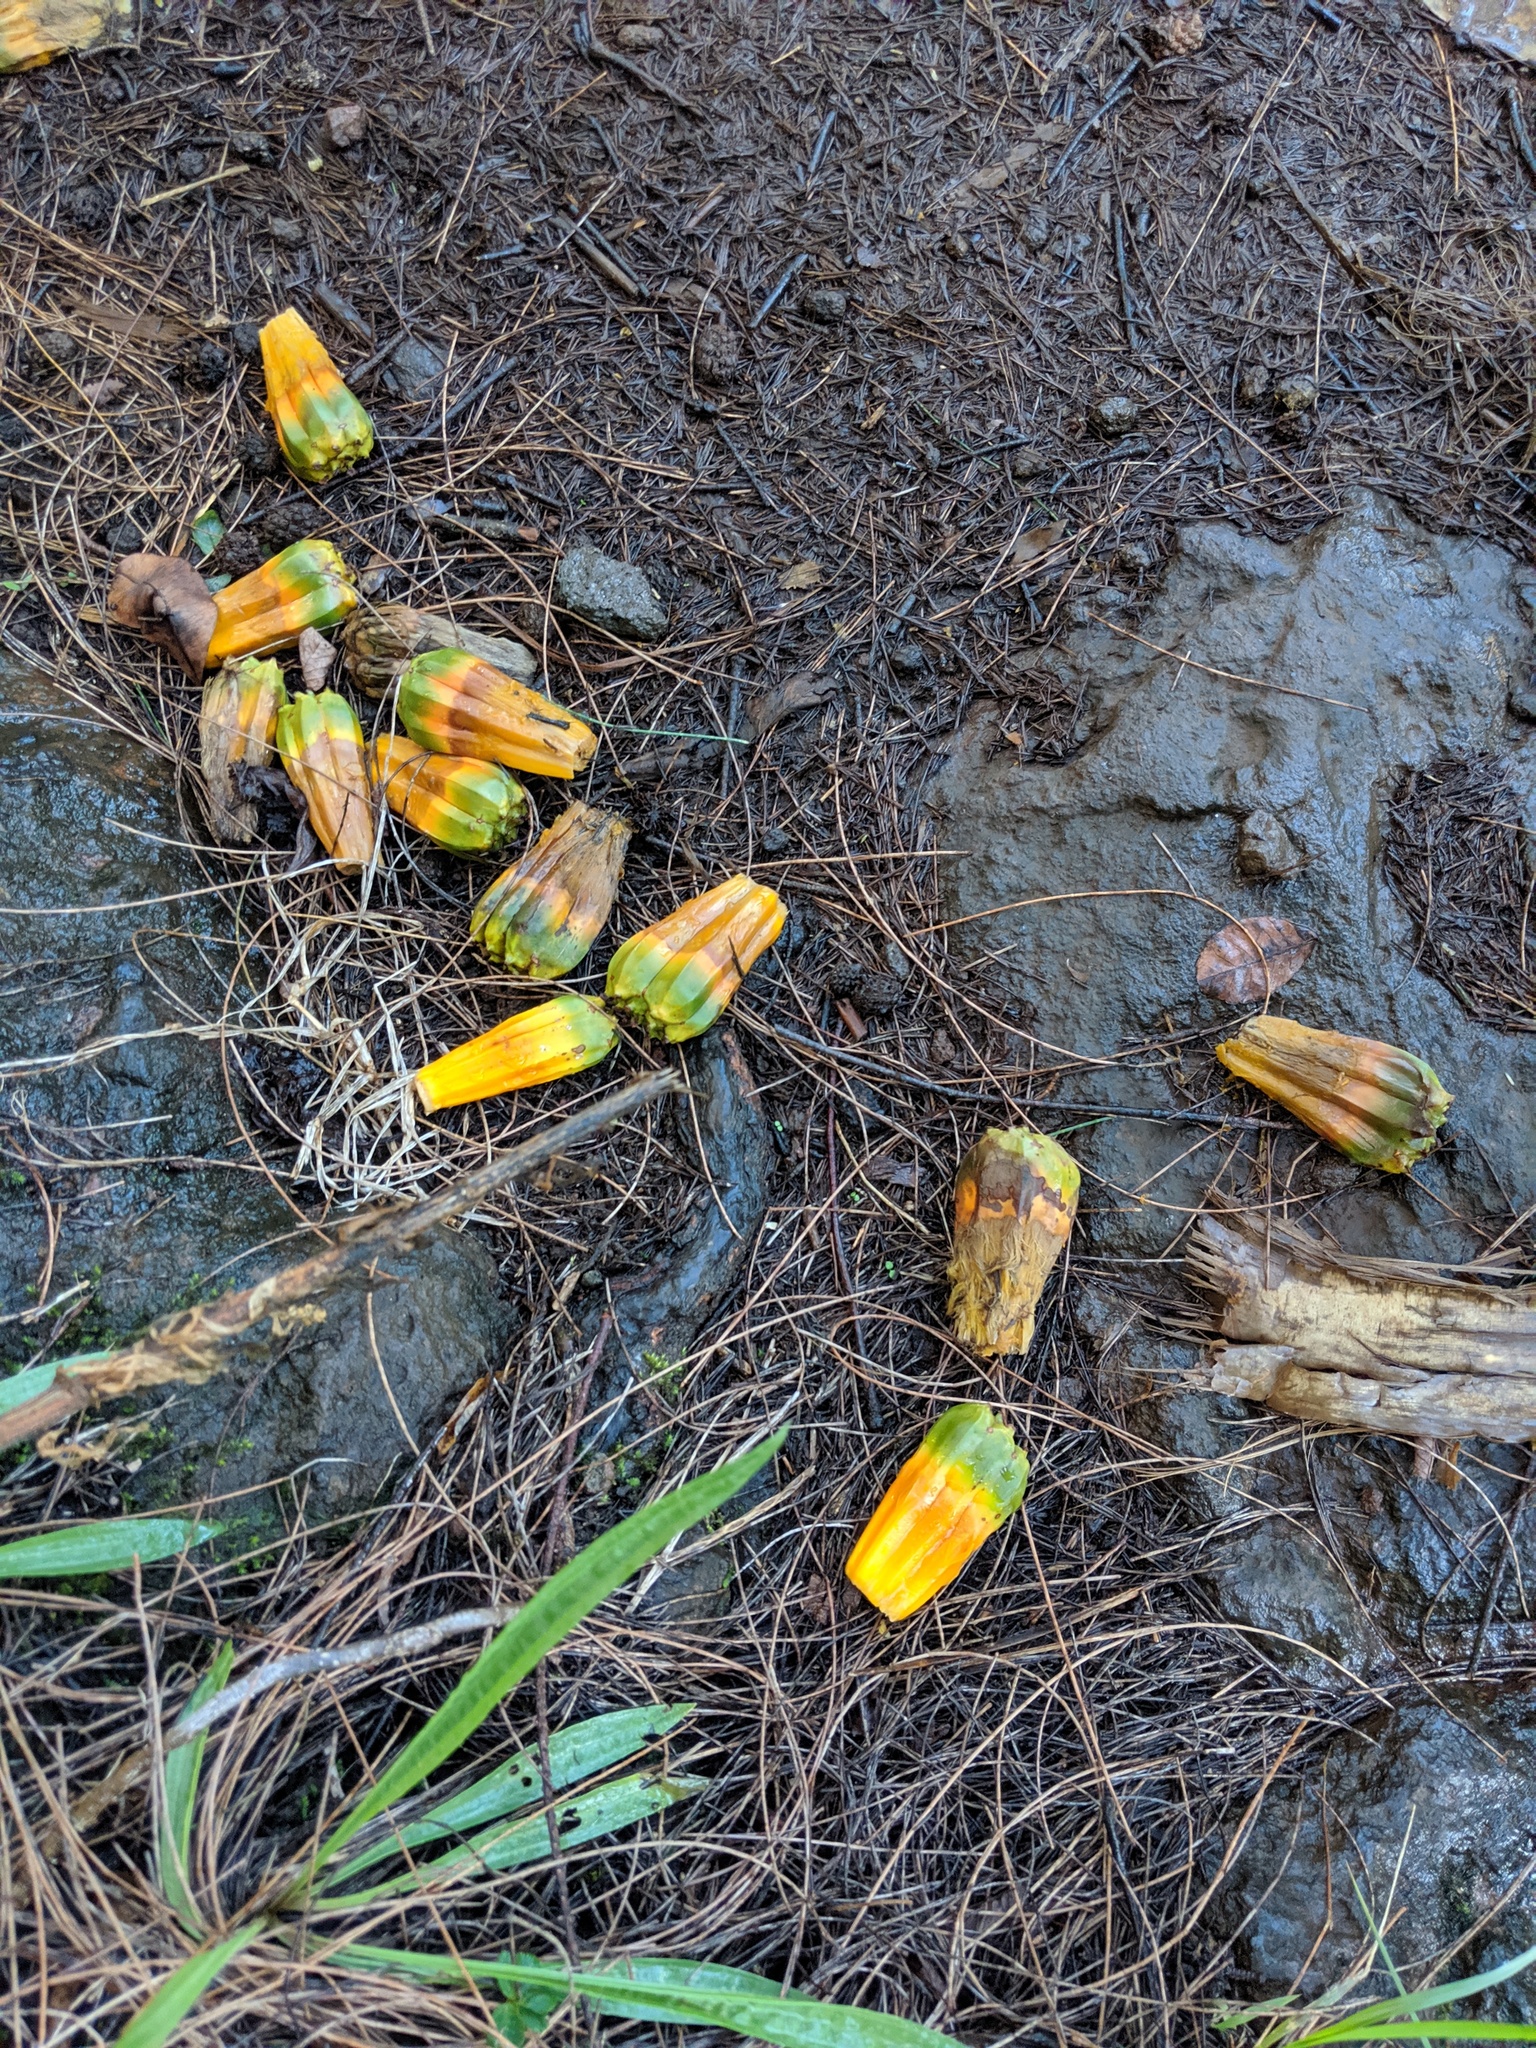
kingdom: Plantae
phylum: Tracheophyta
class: Liliopsida
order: Pandanales
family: Pandanaceae
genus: Pandanus
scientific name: Pandanus tectorius
